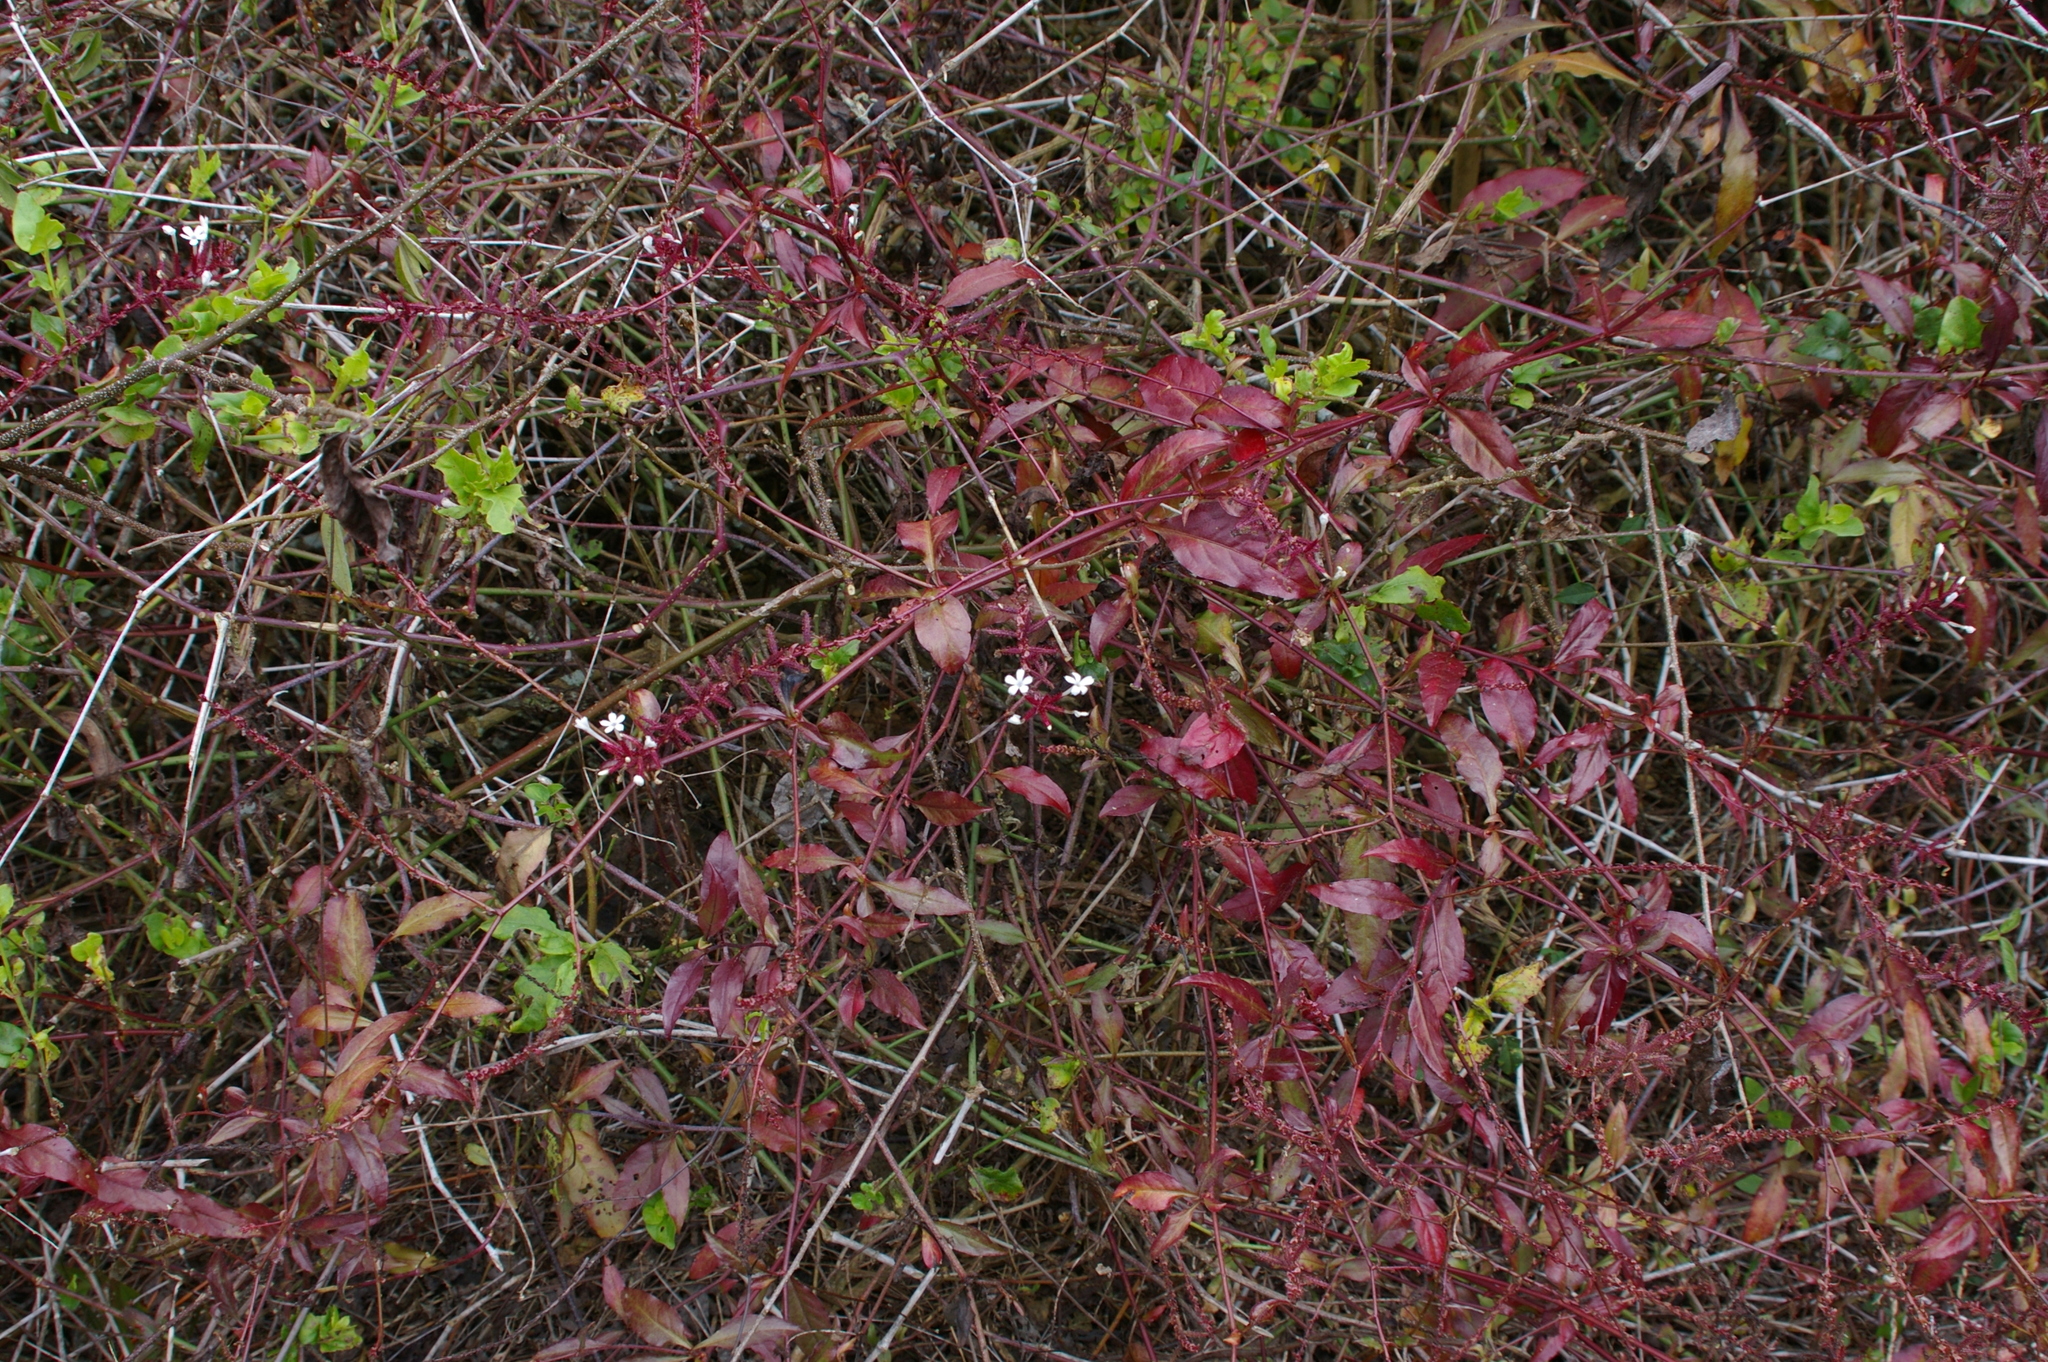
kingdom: Plantae
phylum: Tracheophyta
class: Magnoliopsida
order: Caryophyllales
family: Plumbaginaceae
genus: Plumbago
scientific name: Plumbago zeylanica
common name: Doctorbush
